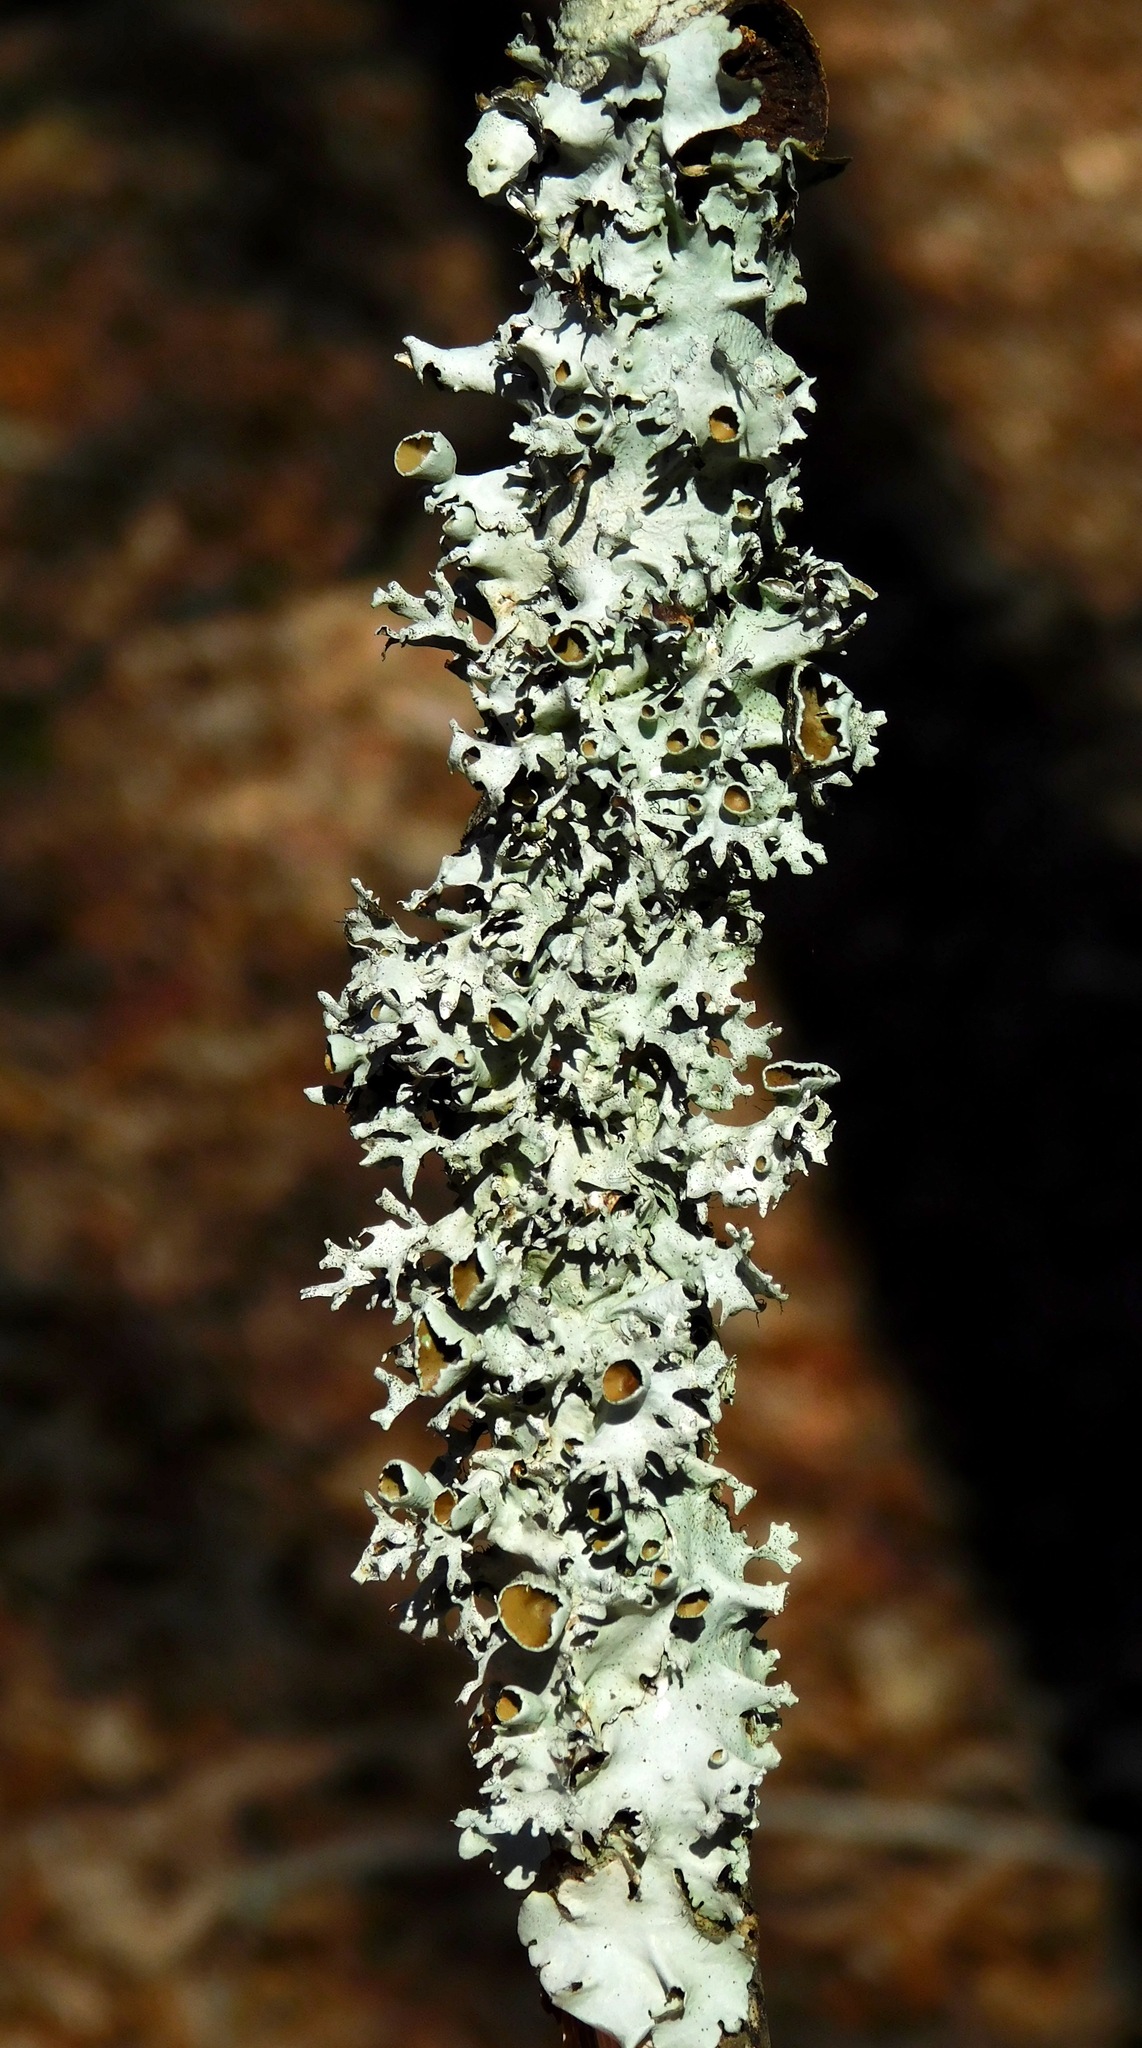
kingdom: Fungi
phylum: Ascomycota
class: Lecanoromycetes
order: Lecanorales
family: Parmeliaceae
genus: Parmotrema
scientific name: Parmotrema cetratum
